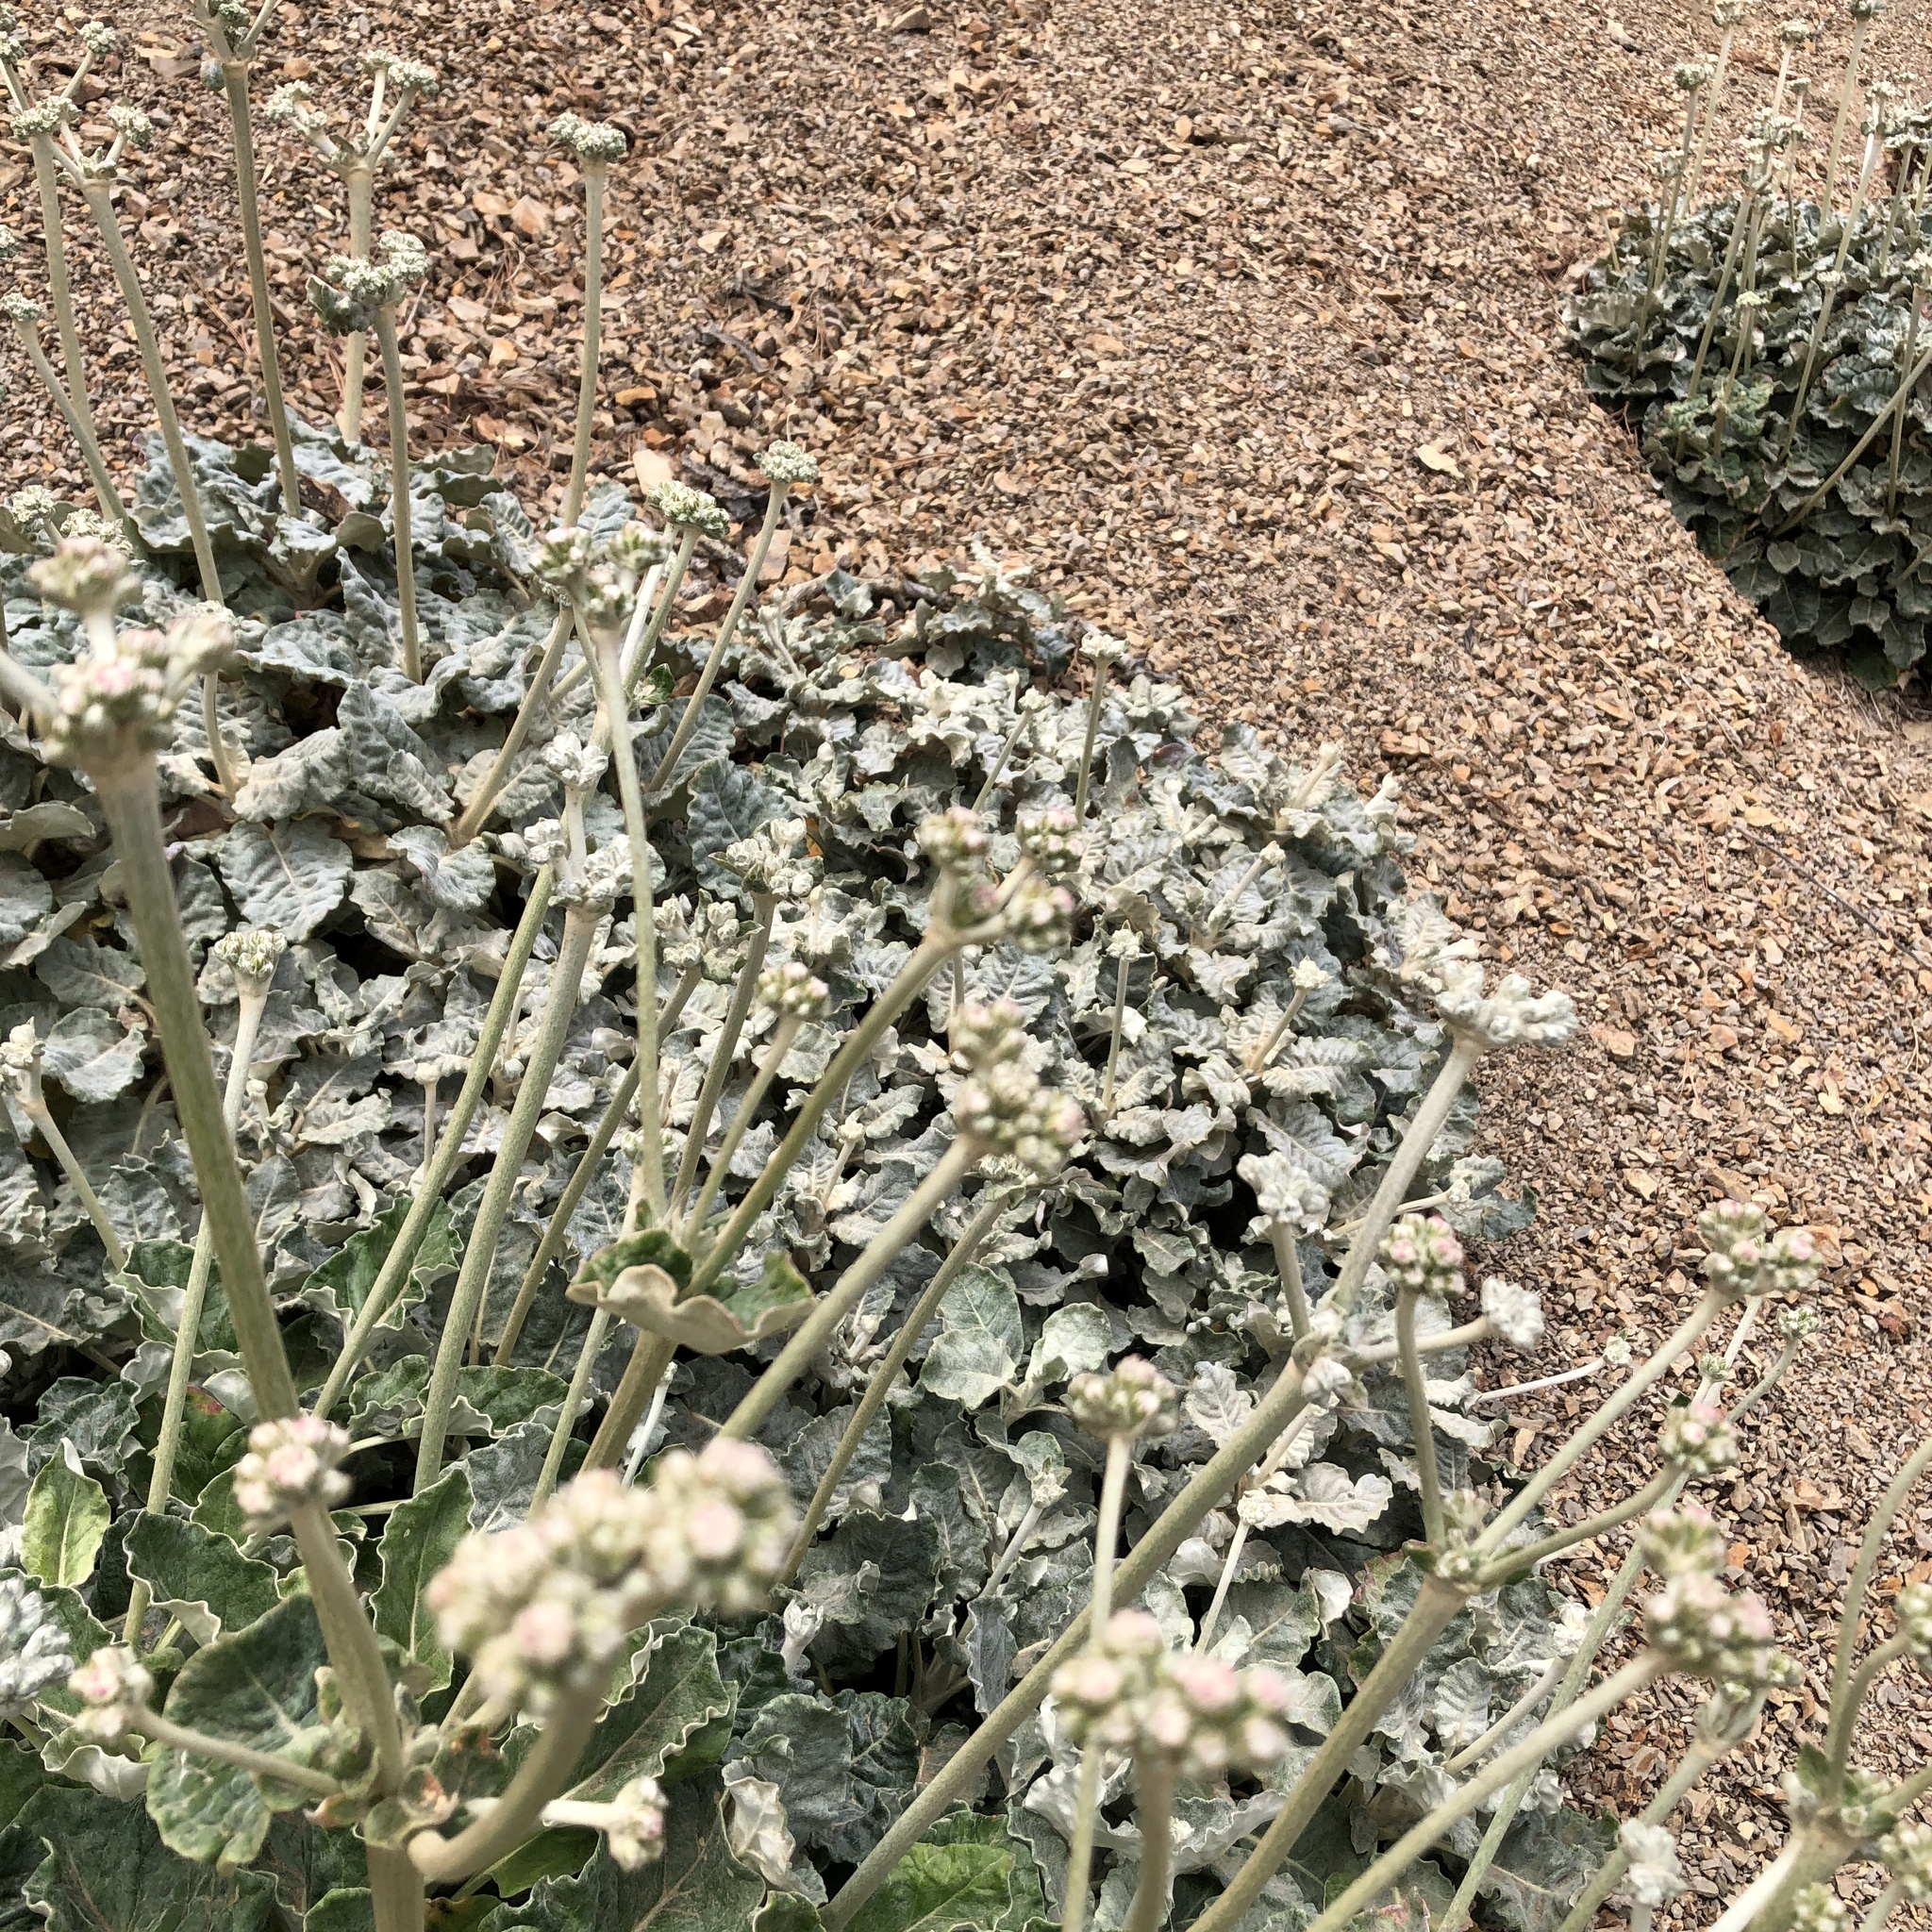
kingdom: Plantae
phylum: Tracheophyta
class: Magnoliopsida
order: Caryophyllales
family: Polygonaceae
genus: Eriogonum
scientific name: Eriogonum latifolium
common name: Seaside wild buckwheat
